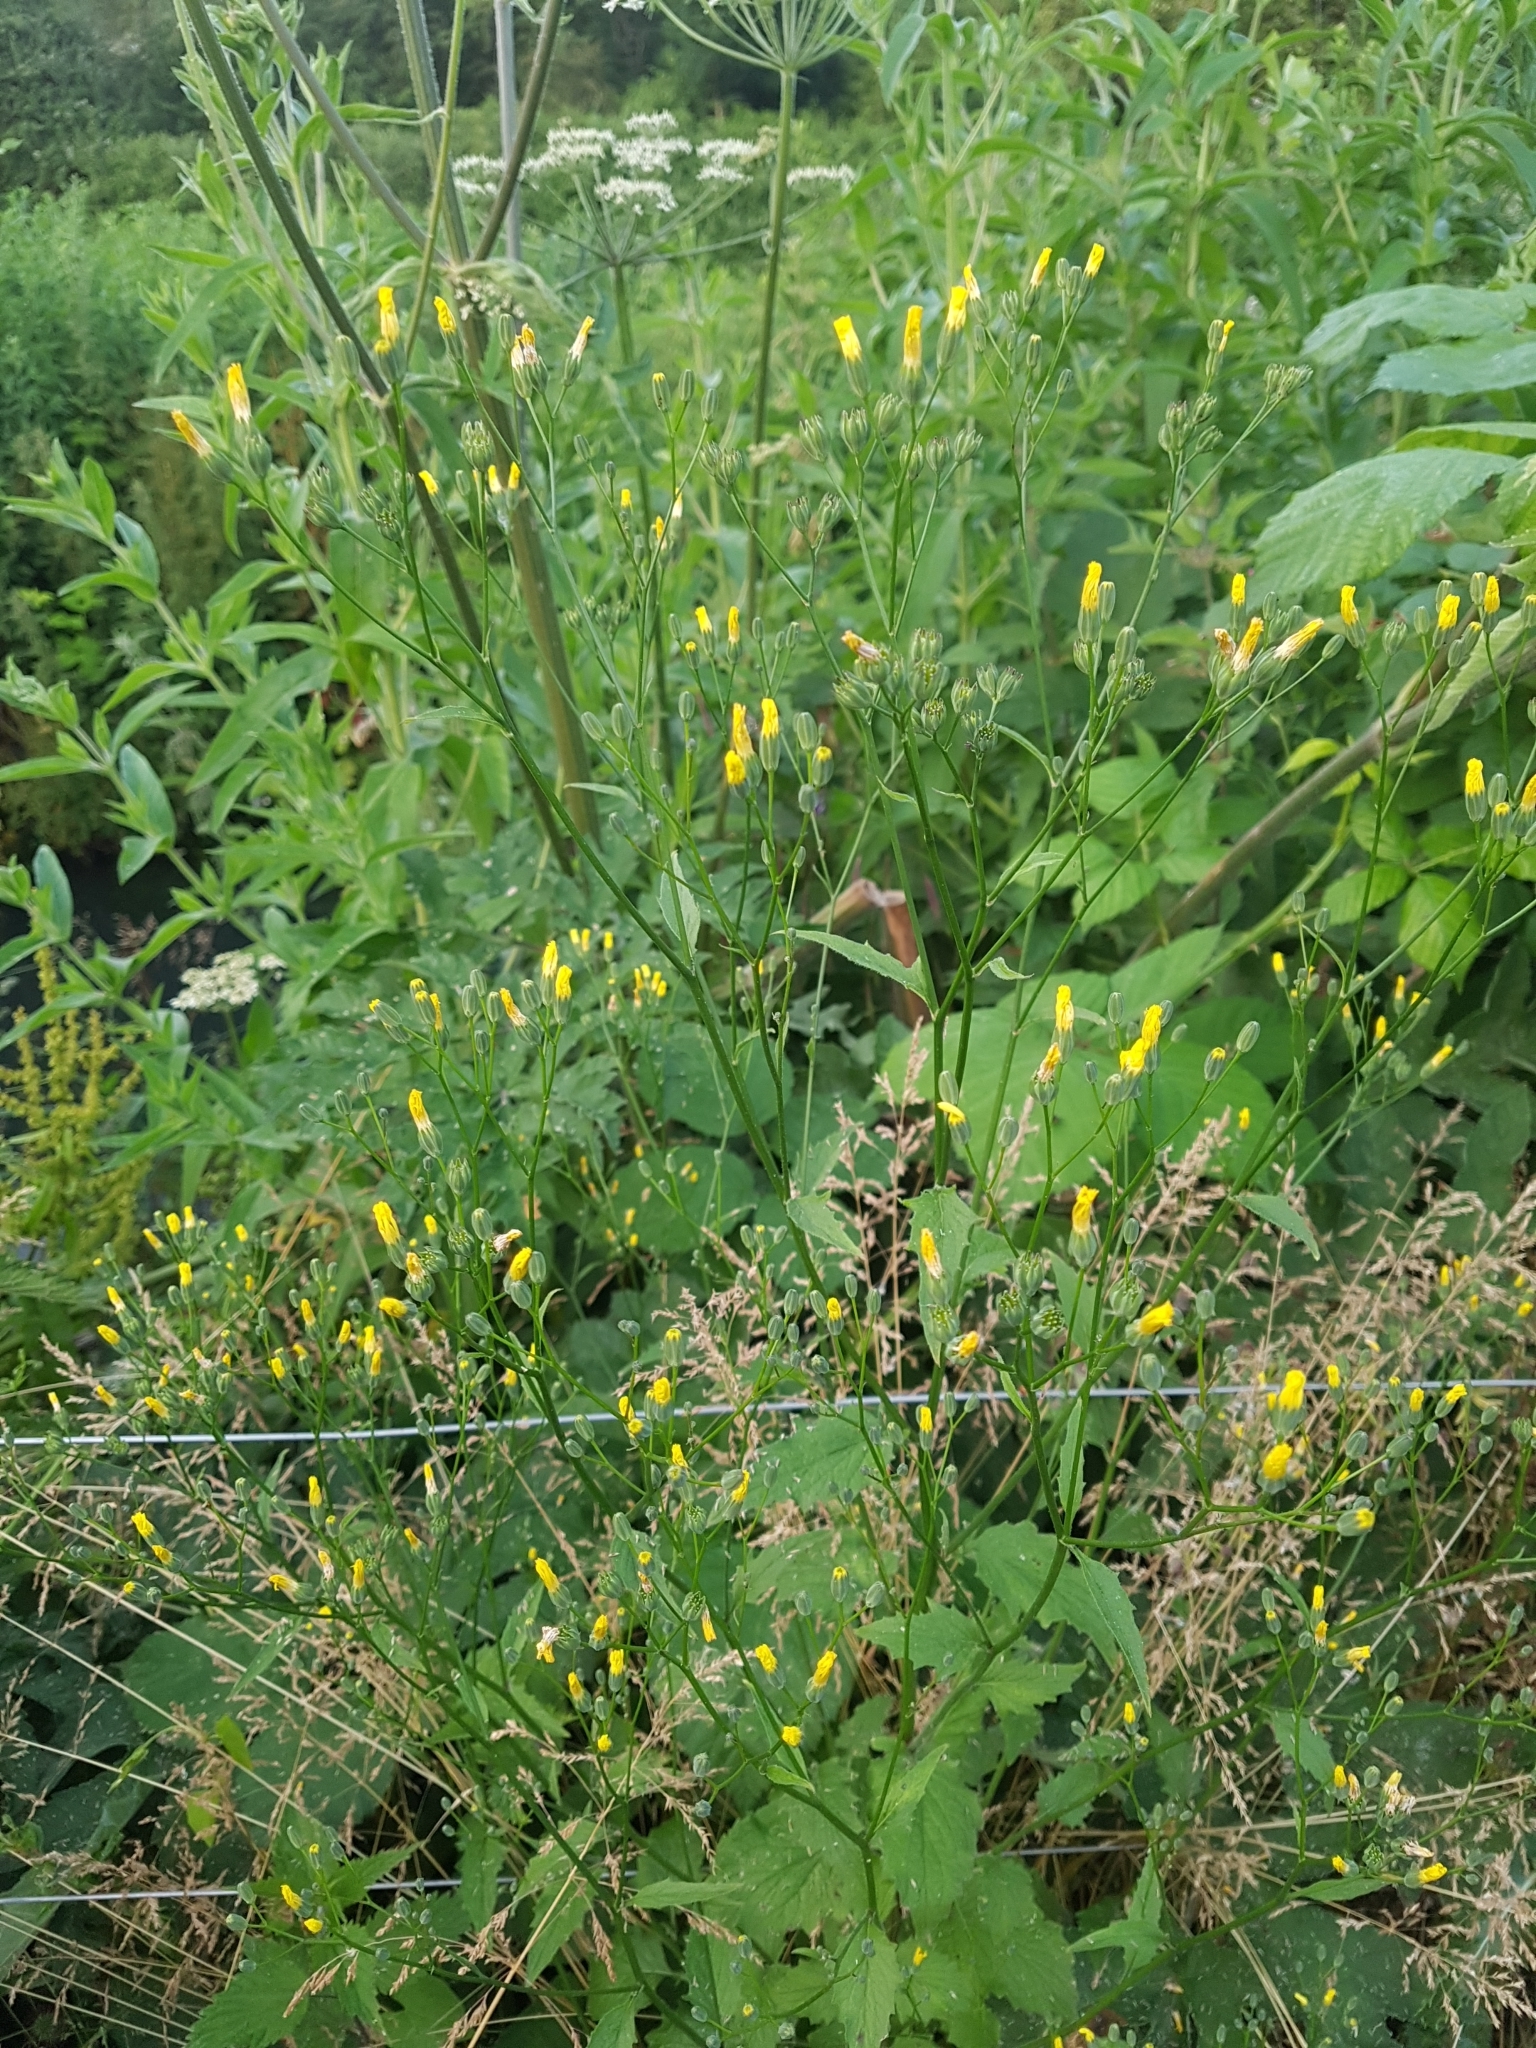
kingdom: Plantae
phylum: Tracheophyta
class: Magnoliopsida
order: Asterales
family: Asteraceae
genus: Lapsana
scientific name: Lapsana communis
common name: Nipplewort
